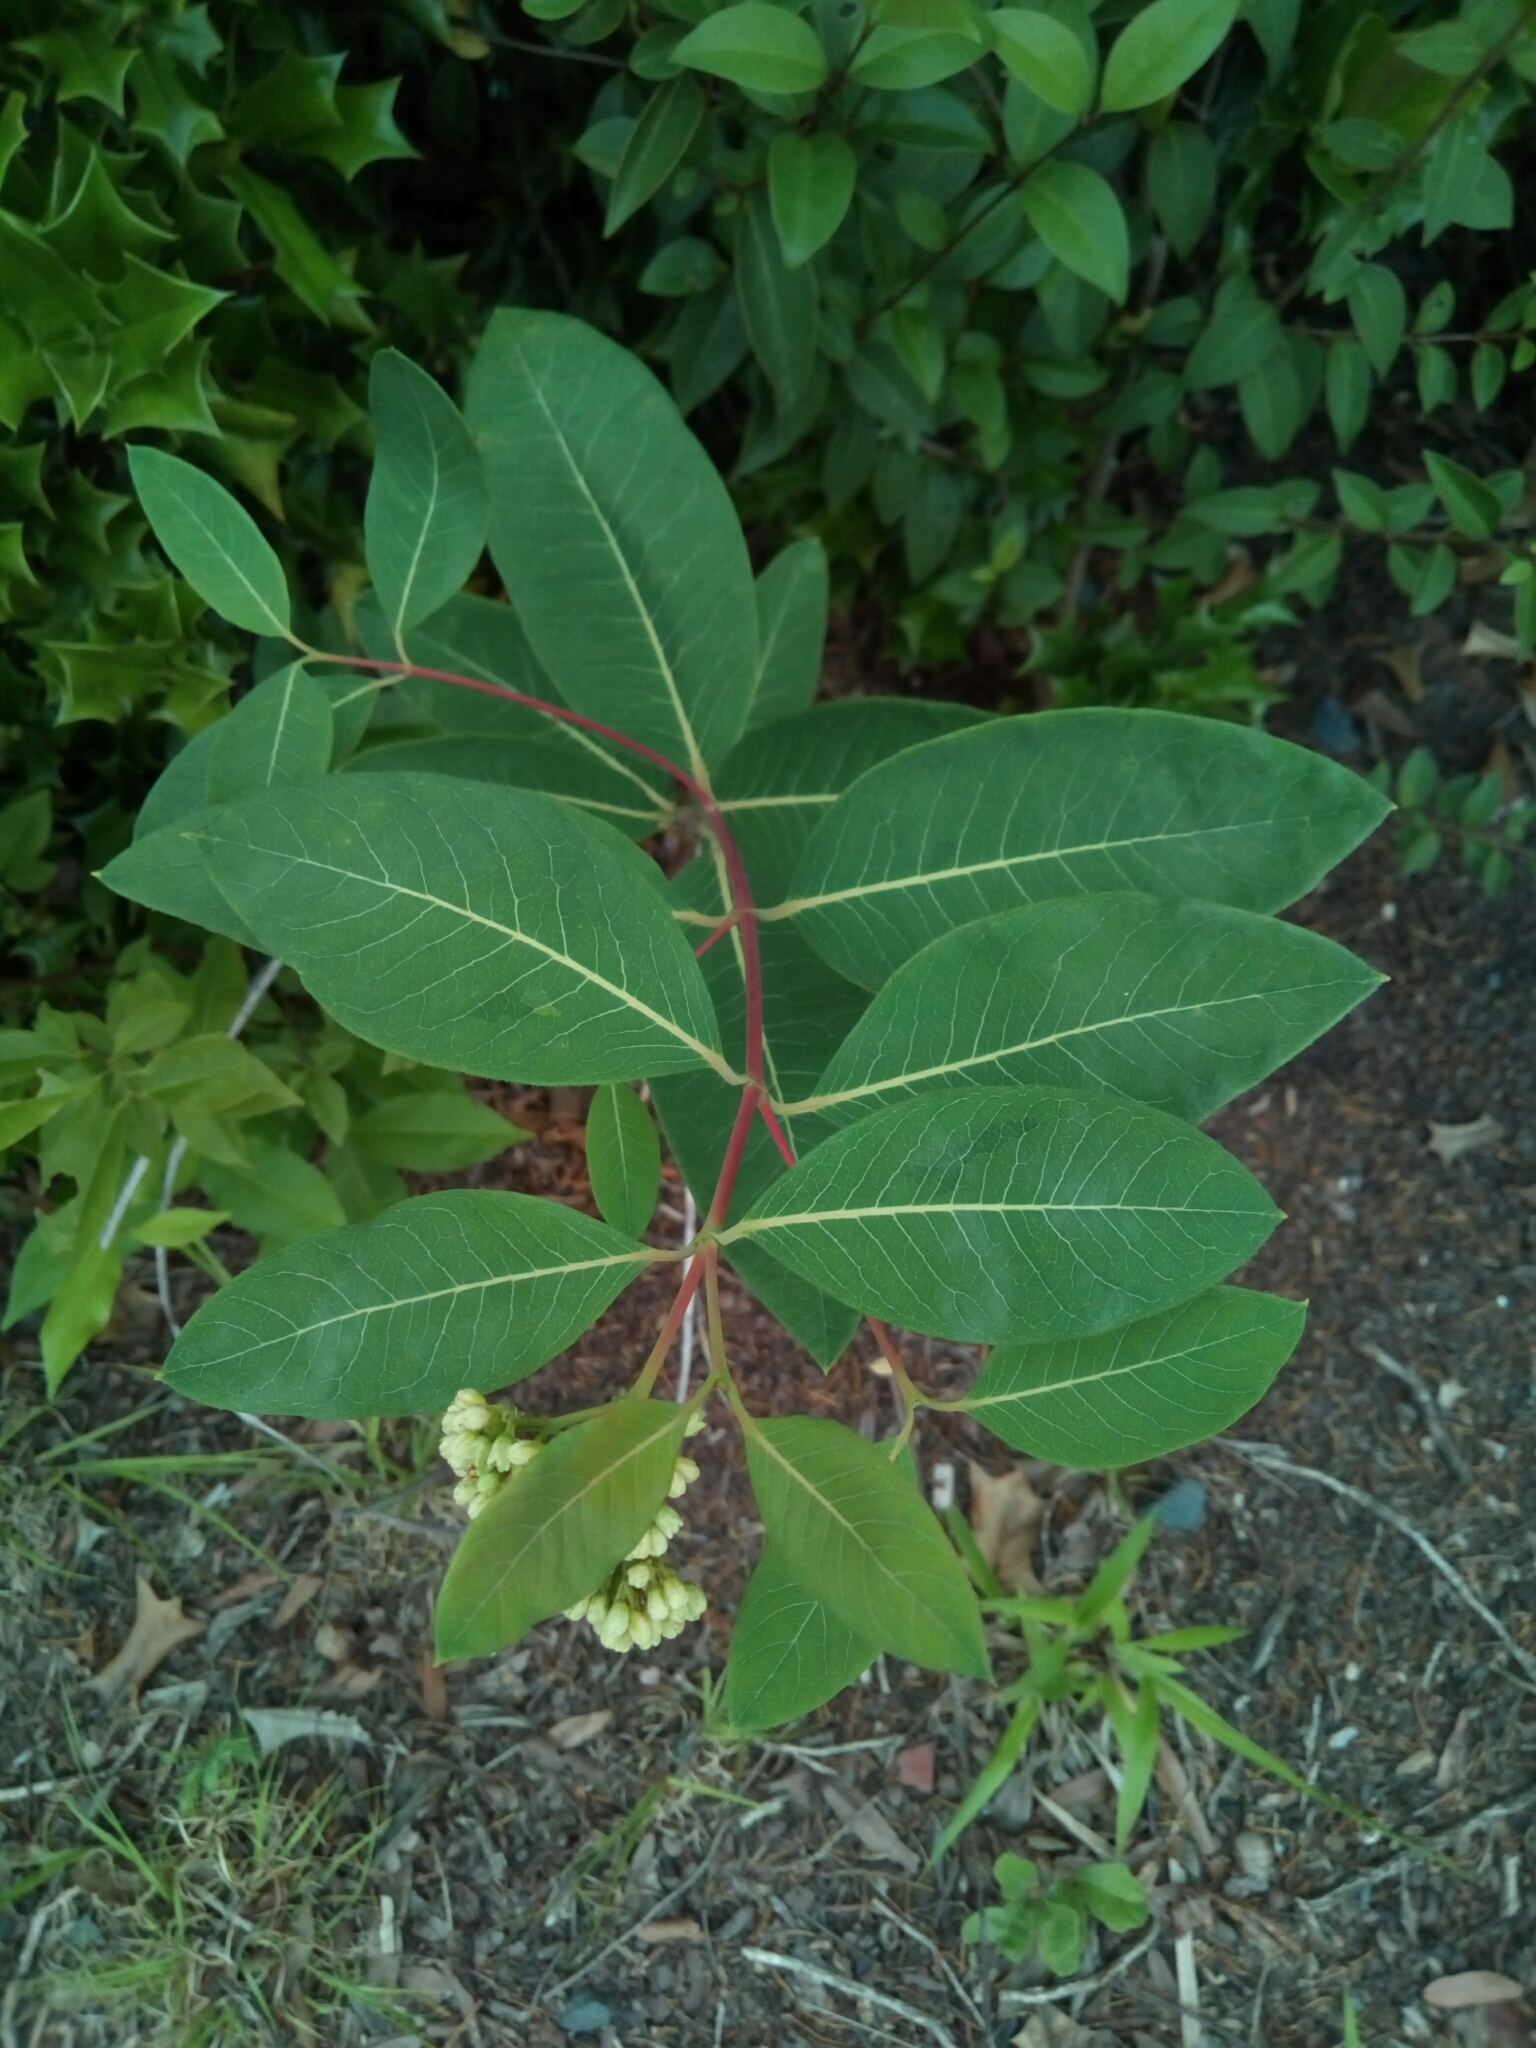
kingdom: Plantae
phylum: Tracheophyta
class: Magnoliopsida
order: Gentianales
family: Apocynaceae
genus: Apocynum
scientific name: Apocynum cannabinum
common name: Hemp dogbane
